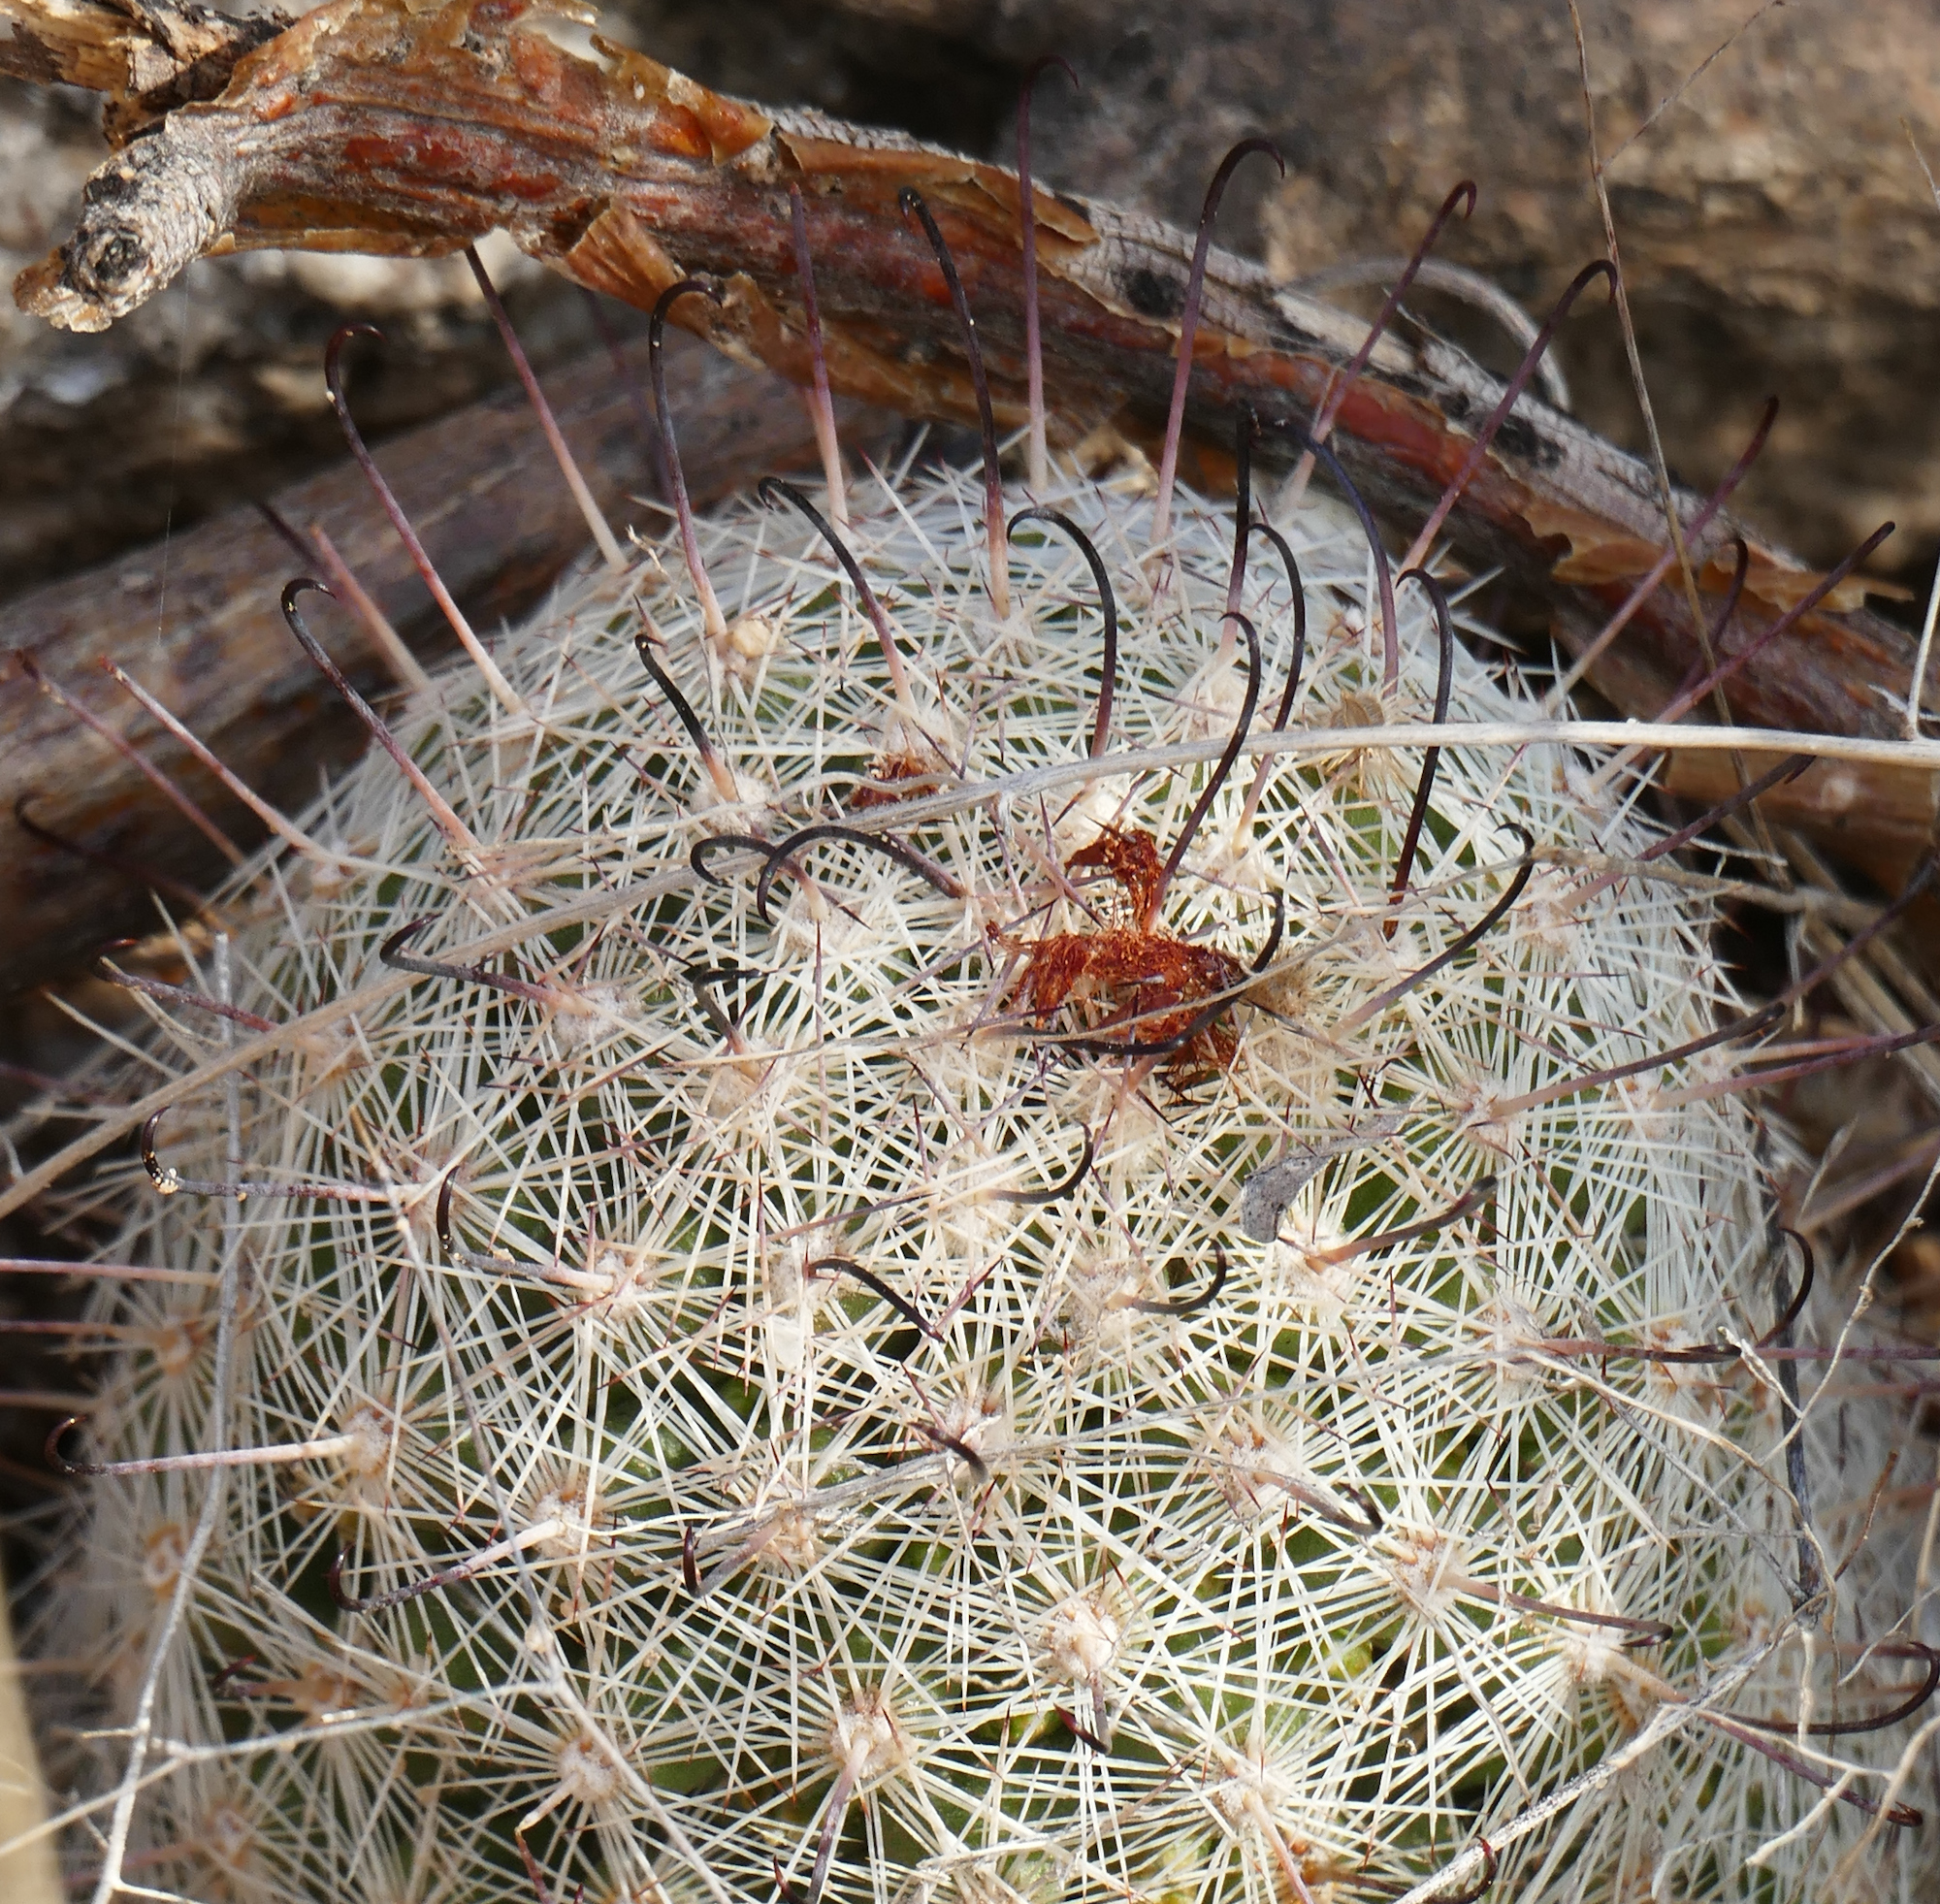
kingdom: Plantae
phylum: Tracheophyta
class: Magnoliopsida
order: Caryophyllales
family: Cactaceae
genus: Cochemiea
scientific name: Cochemiea grahamii
